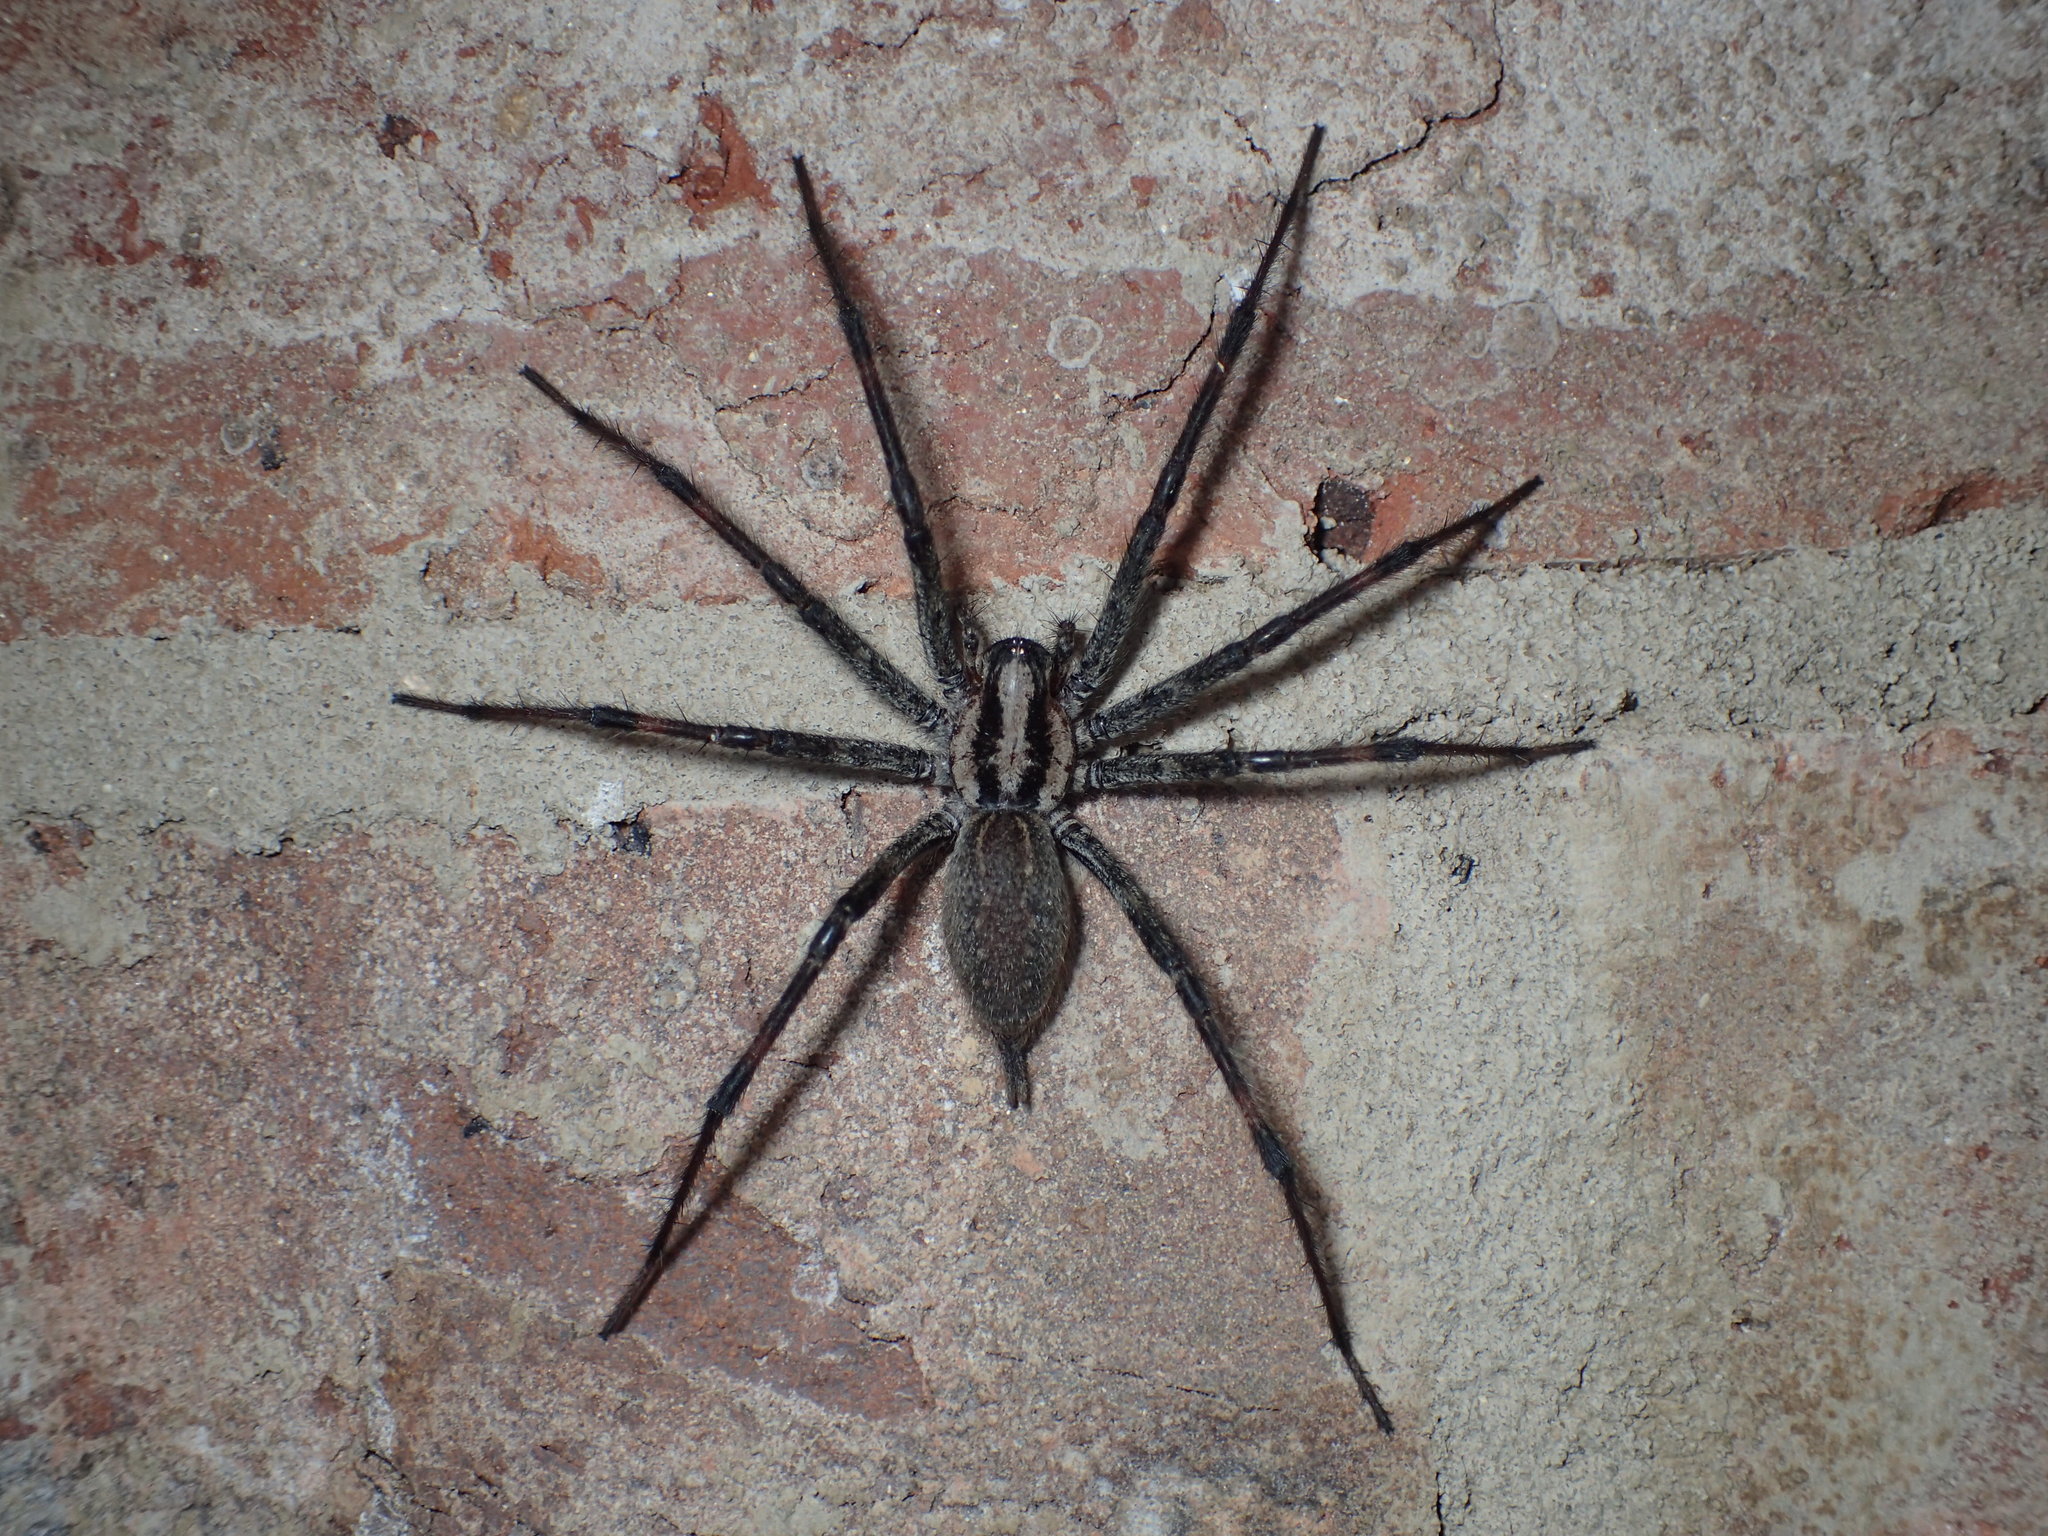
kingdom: Animalia
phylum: Arthropoda
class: Arachnida
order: Araneae
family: Agelenidae
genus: Agelenopsis
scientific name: Agelenopsis
